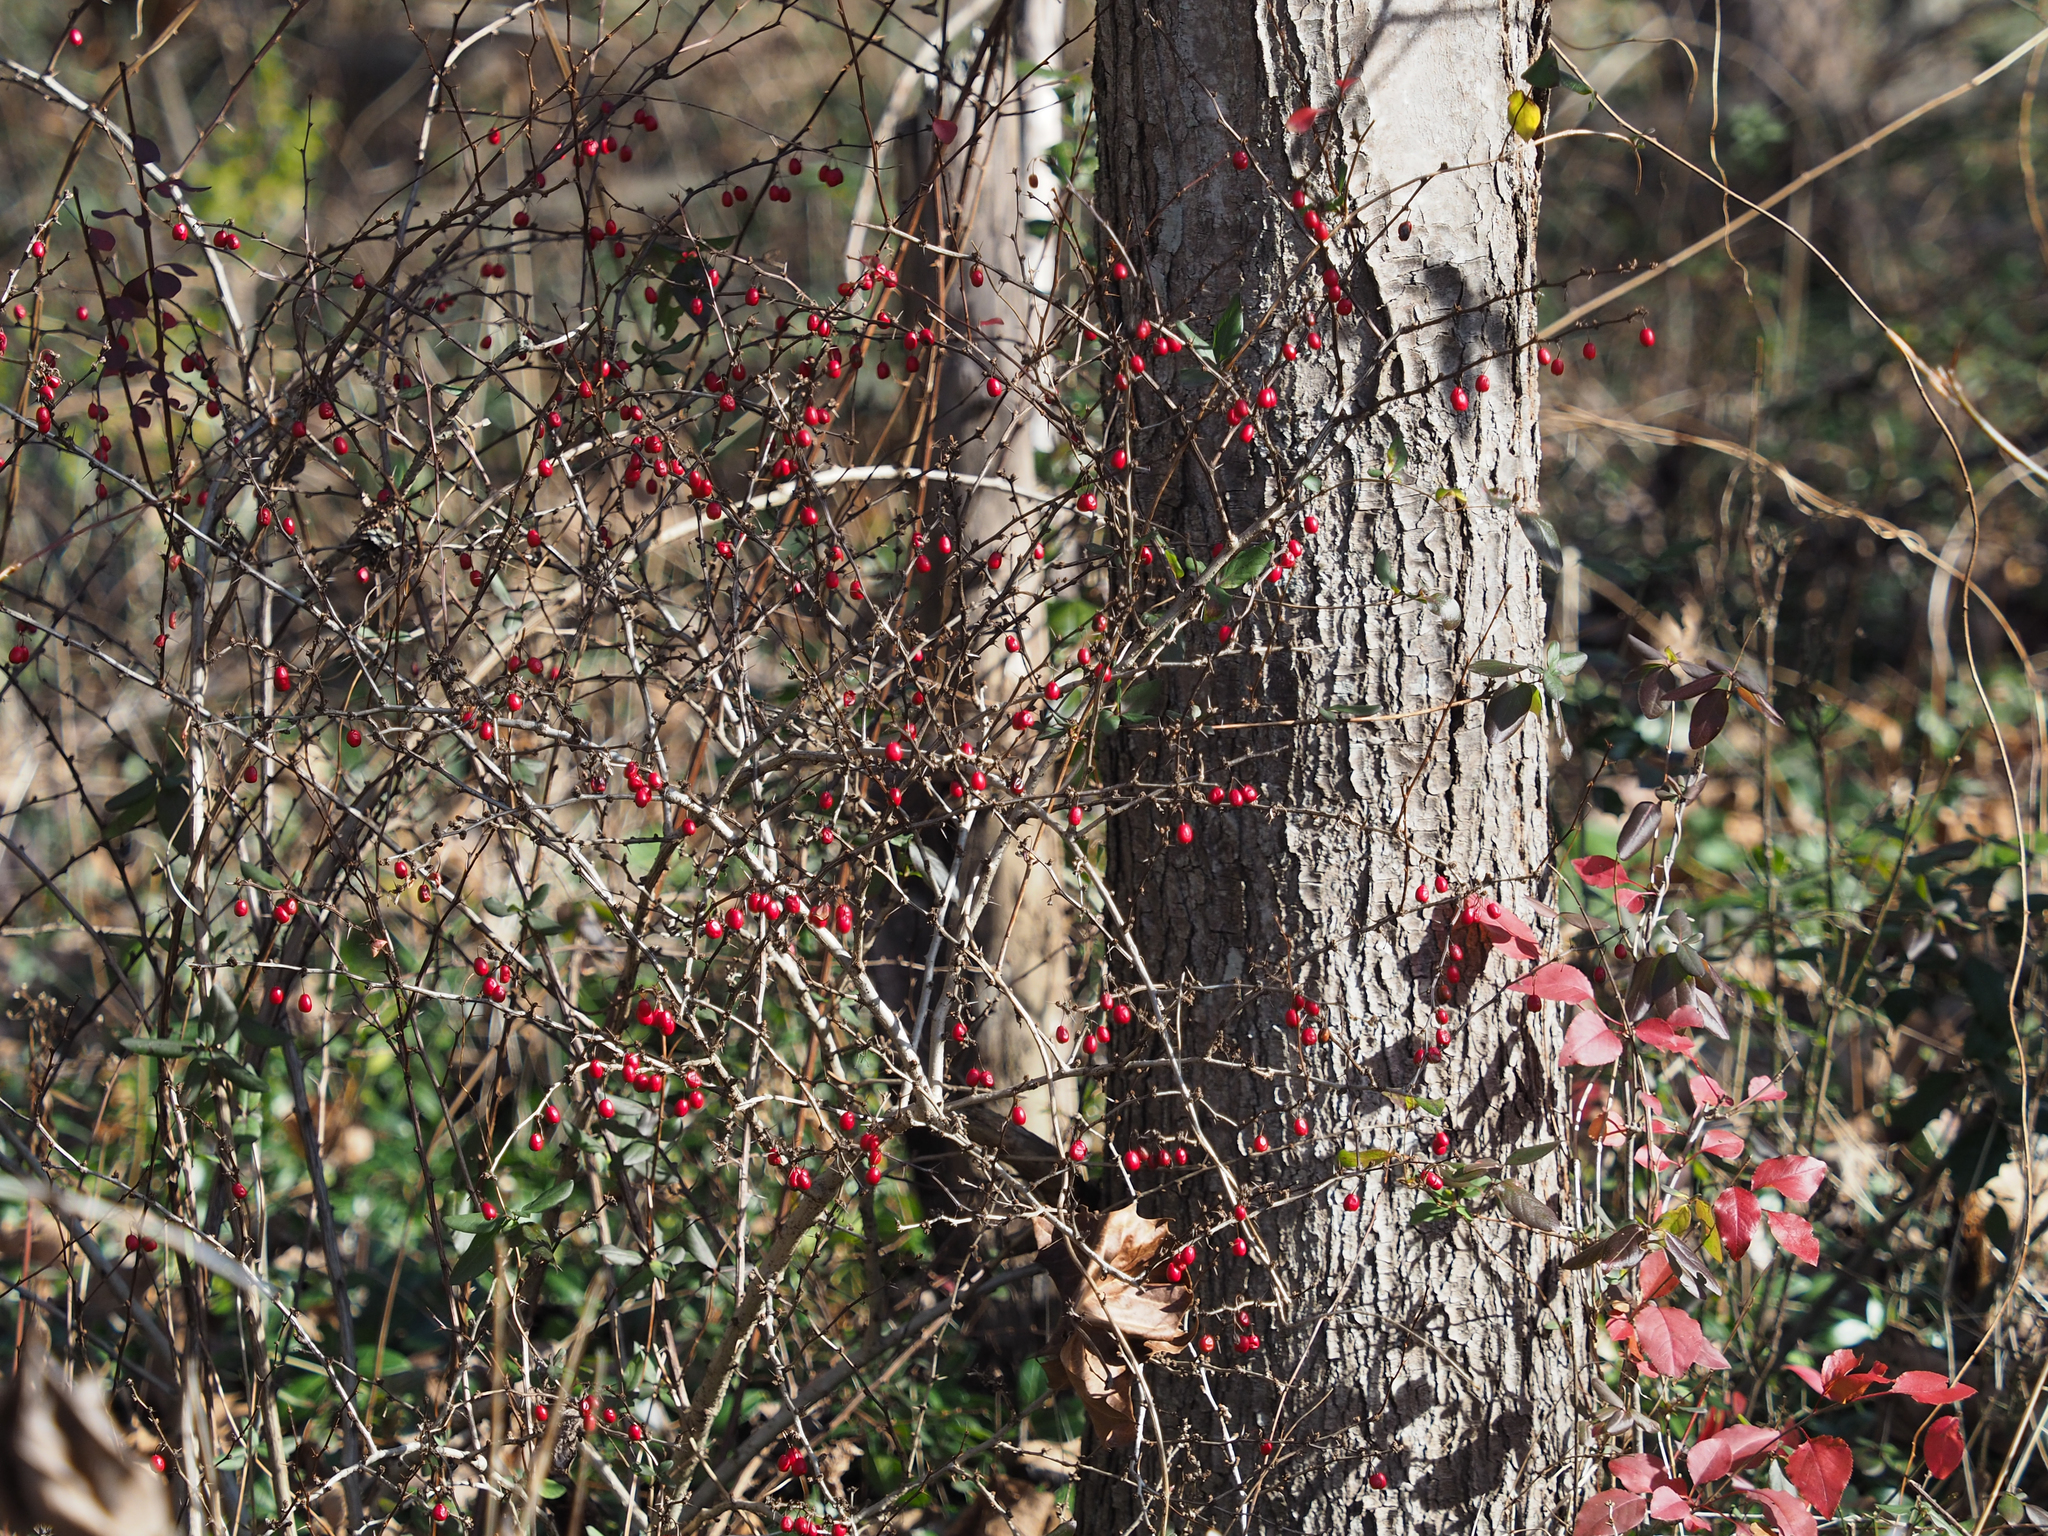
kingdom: Plantae
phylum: Tracheophyta
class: Magnoliopsida
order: Ranunculales
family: Berberidaceae
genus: Berberis
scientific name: Berberis thunbergii
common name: Japanese barberry
